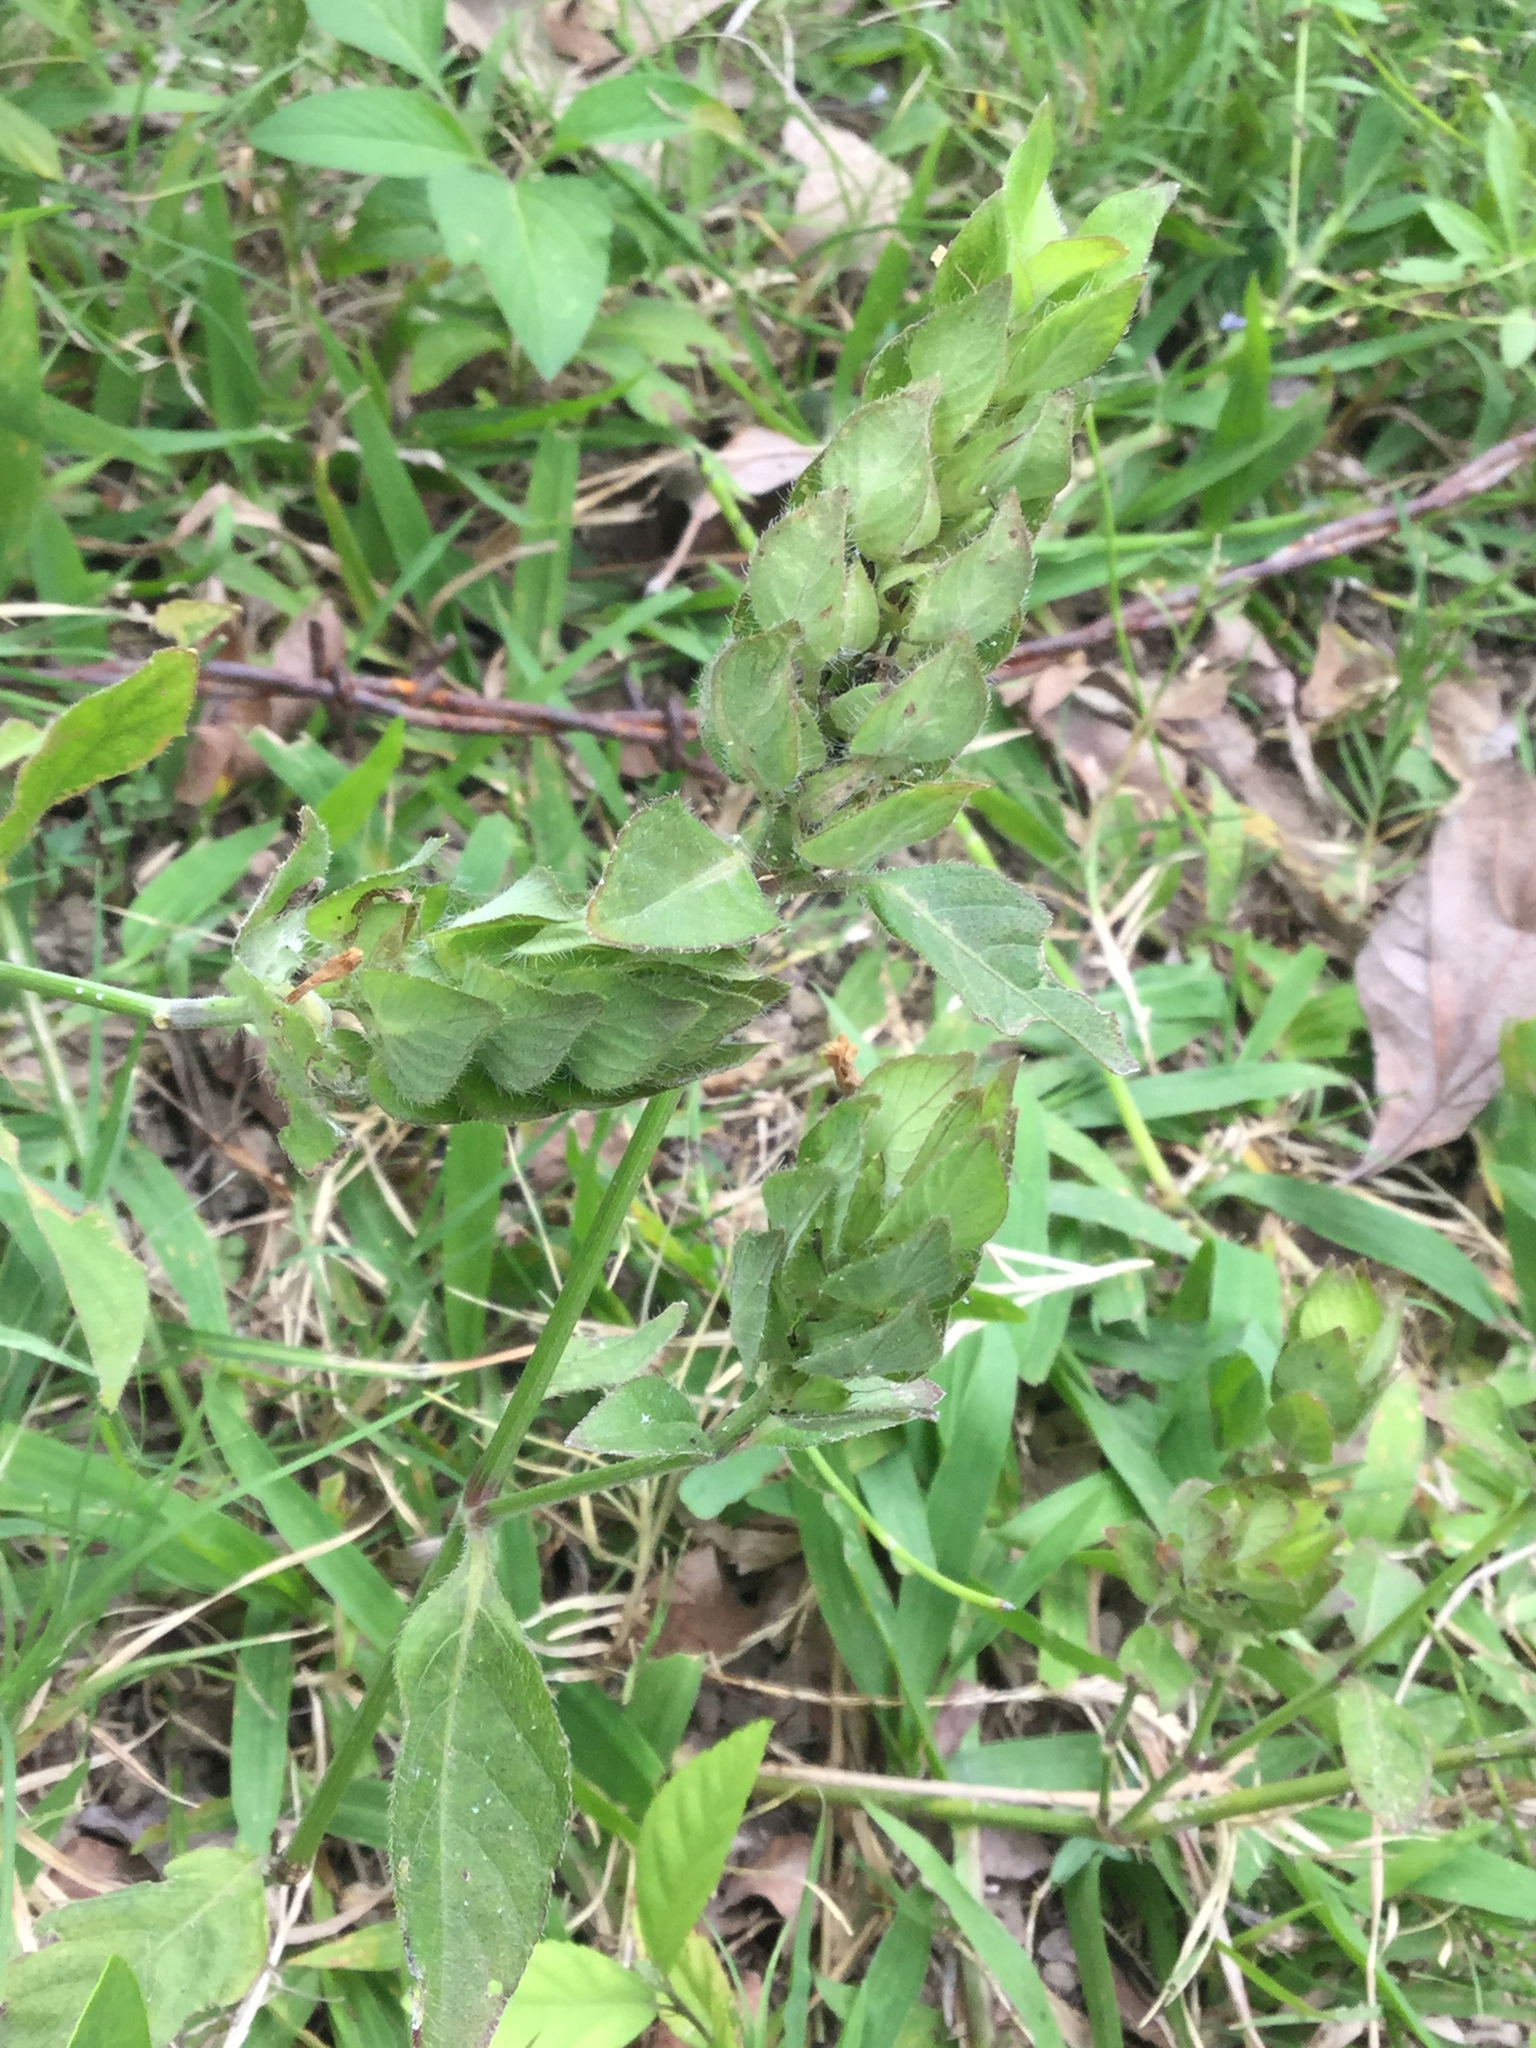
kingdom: Plantae
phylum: Tracheophyta
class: Magnoliopsida
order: Lamiales
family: Acanthaceae
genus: Ruellia
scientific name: Ruellia blechum
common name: Browne's blechum
